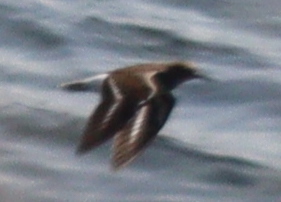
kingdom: Animalia
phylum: Chordata
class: Aves
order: Charadriiformes
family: Scolopacidae
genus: Actitis
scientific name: Actitis hypoleucos
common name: Common sandpiper
